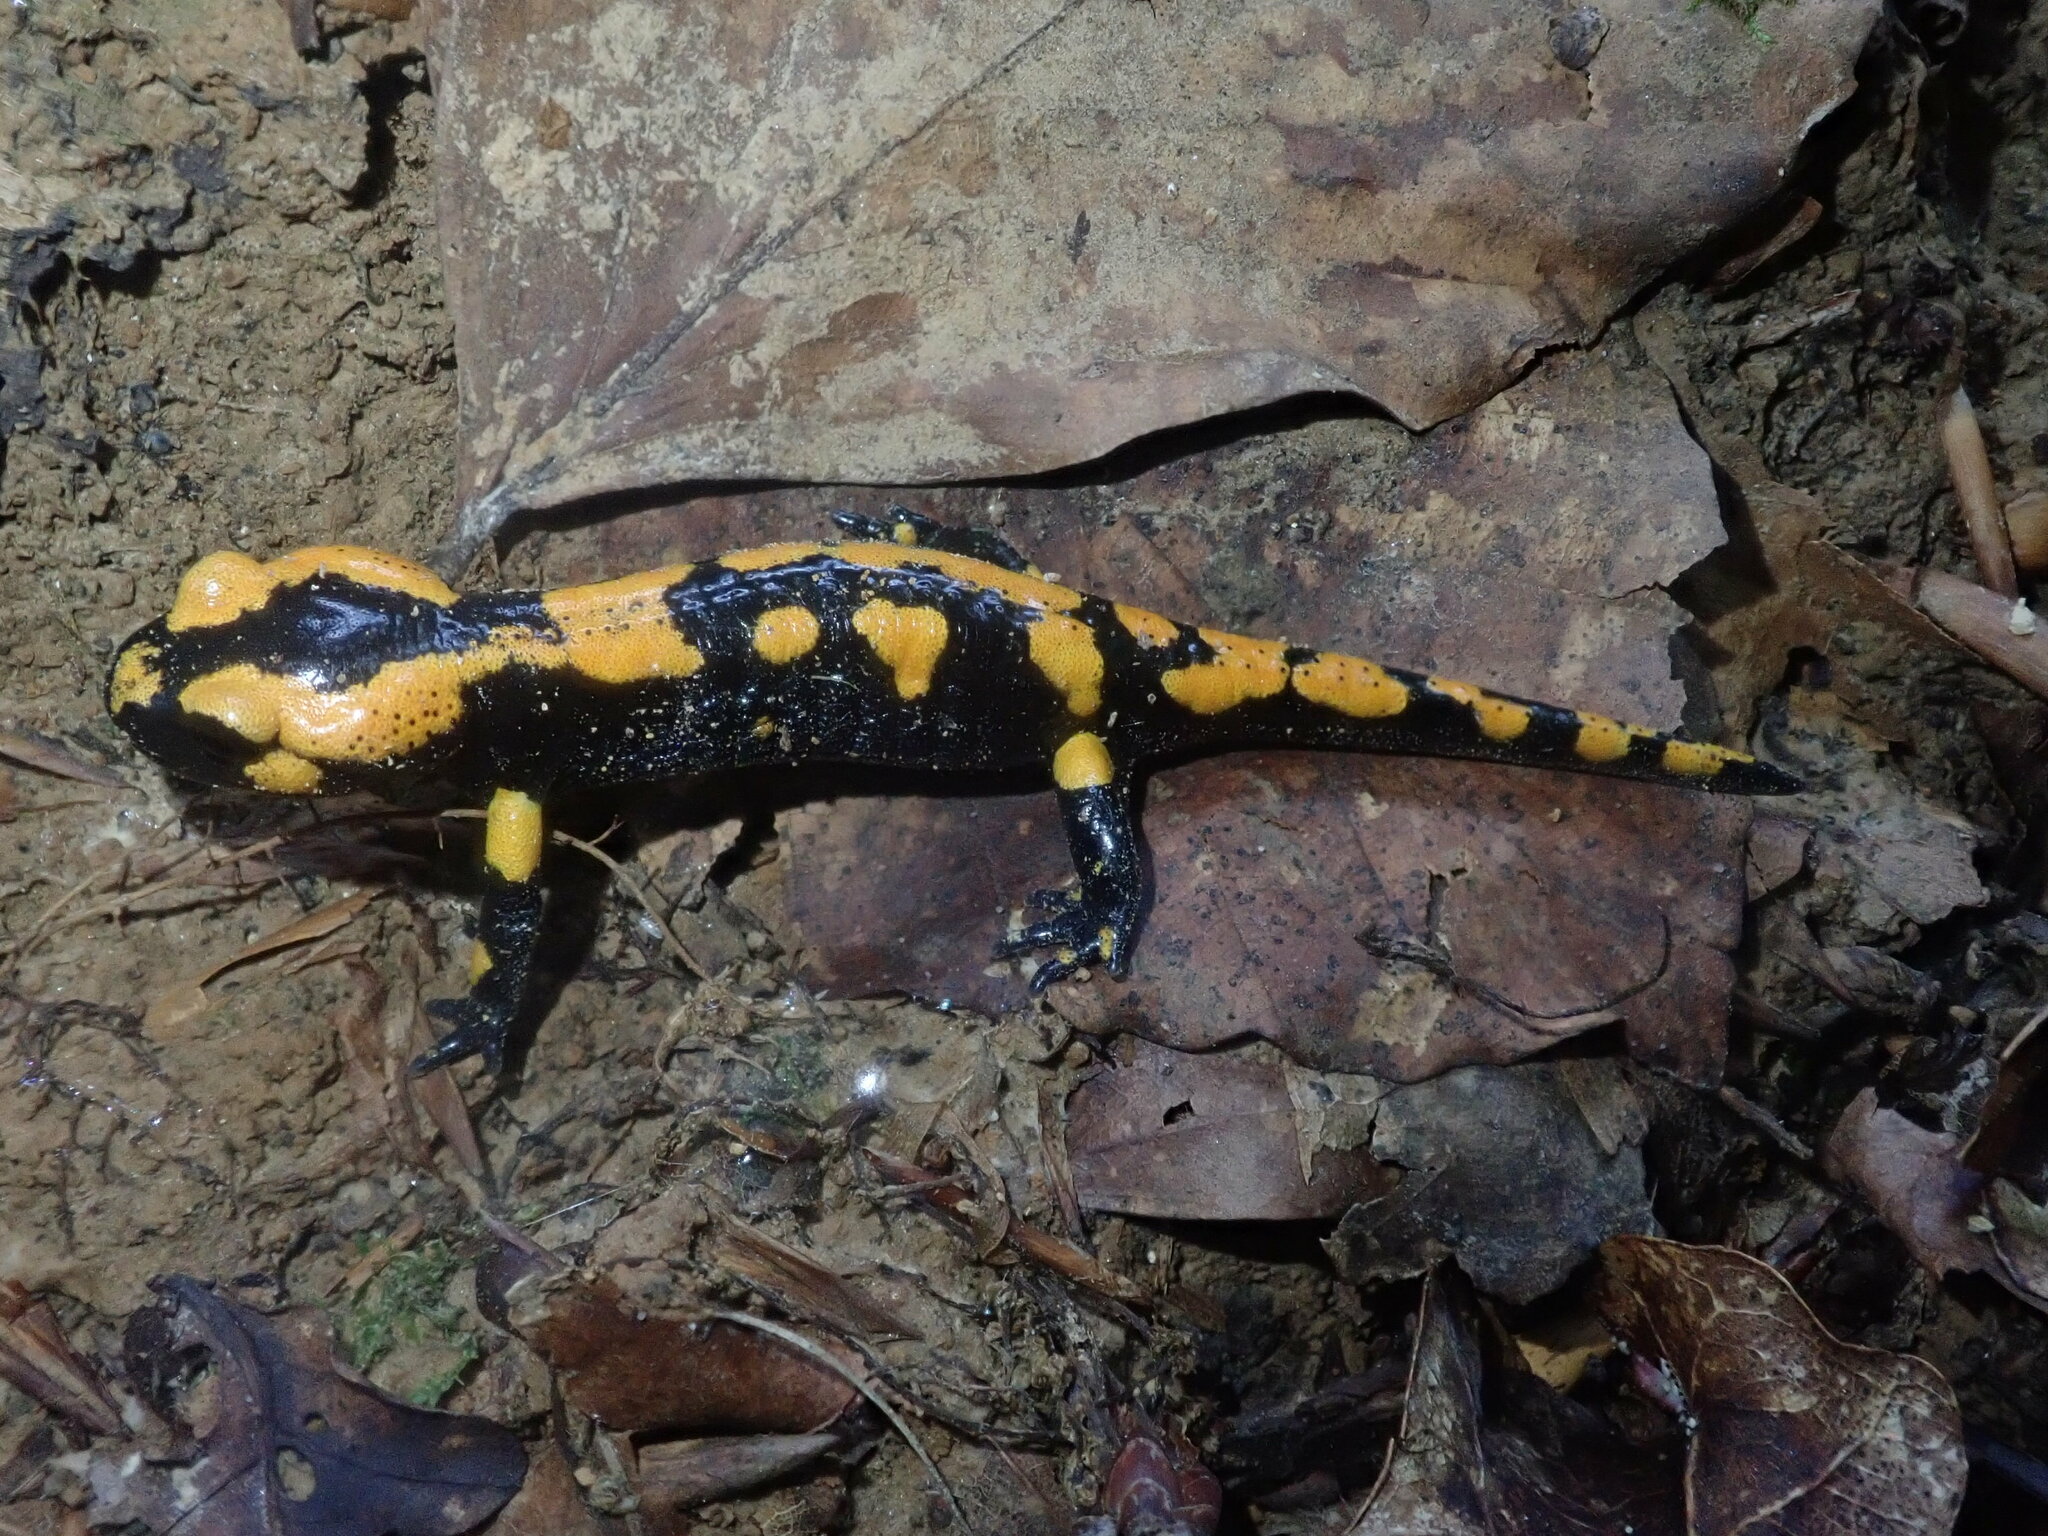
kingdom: Animalia
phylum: Chordata
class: Amphibia
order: Caudata
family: Salamandridae
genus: Salamandra
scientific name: Salamandra salamandra
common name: Fire salamander
